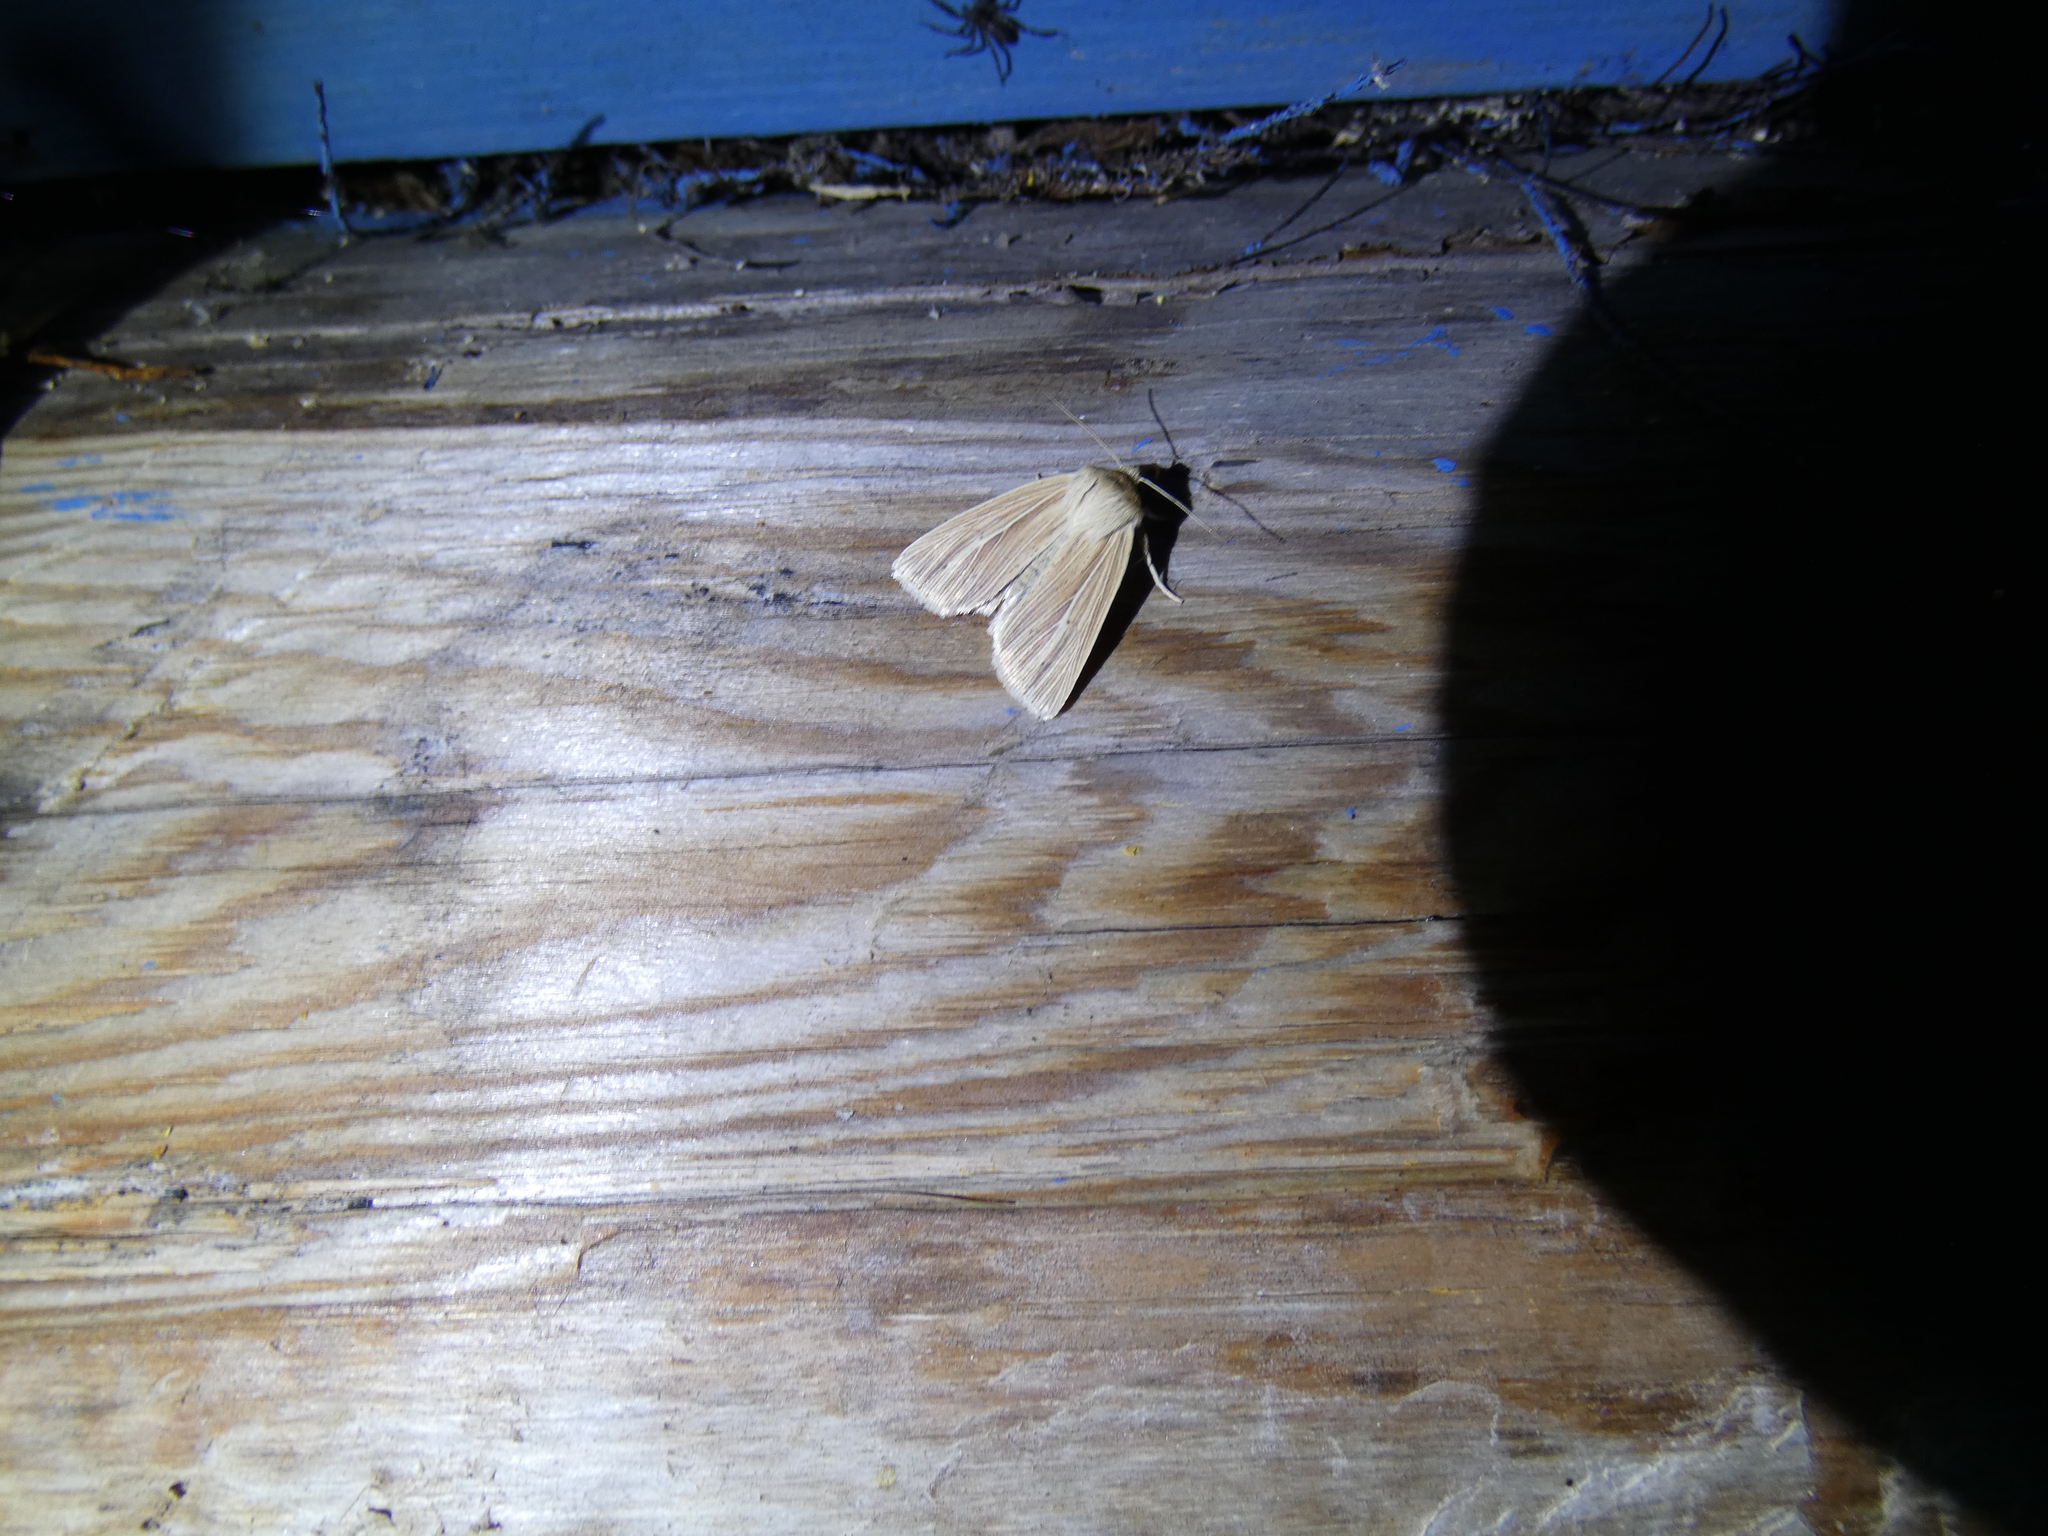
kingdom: Animalia
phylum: Arthropoda
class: Insecta
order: Lepidoptera
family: Noctuidae
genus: Mythimna
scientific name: Mythimna impura
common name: Smoky wainscot
